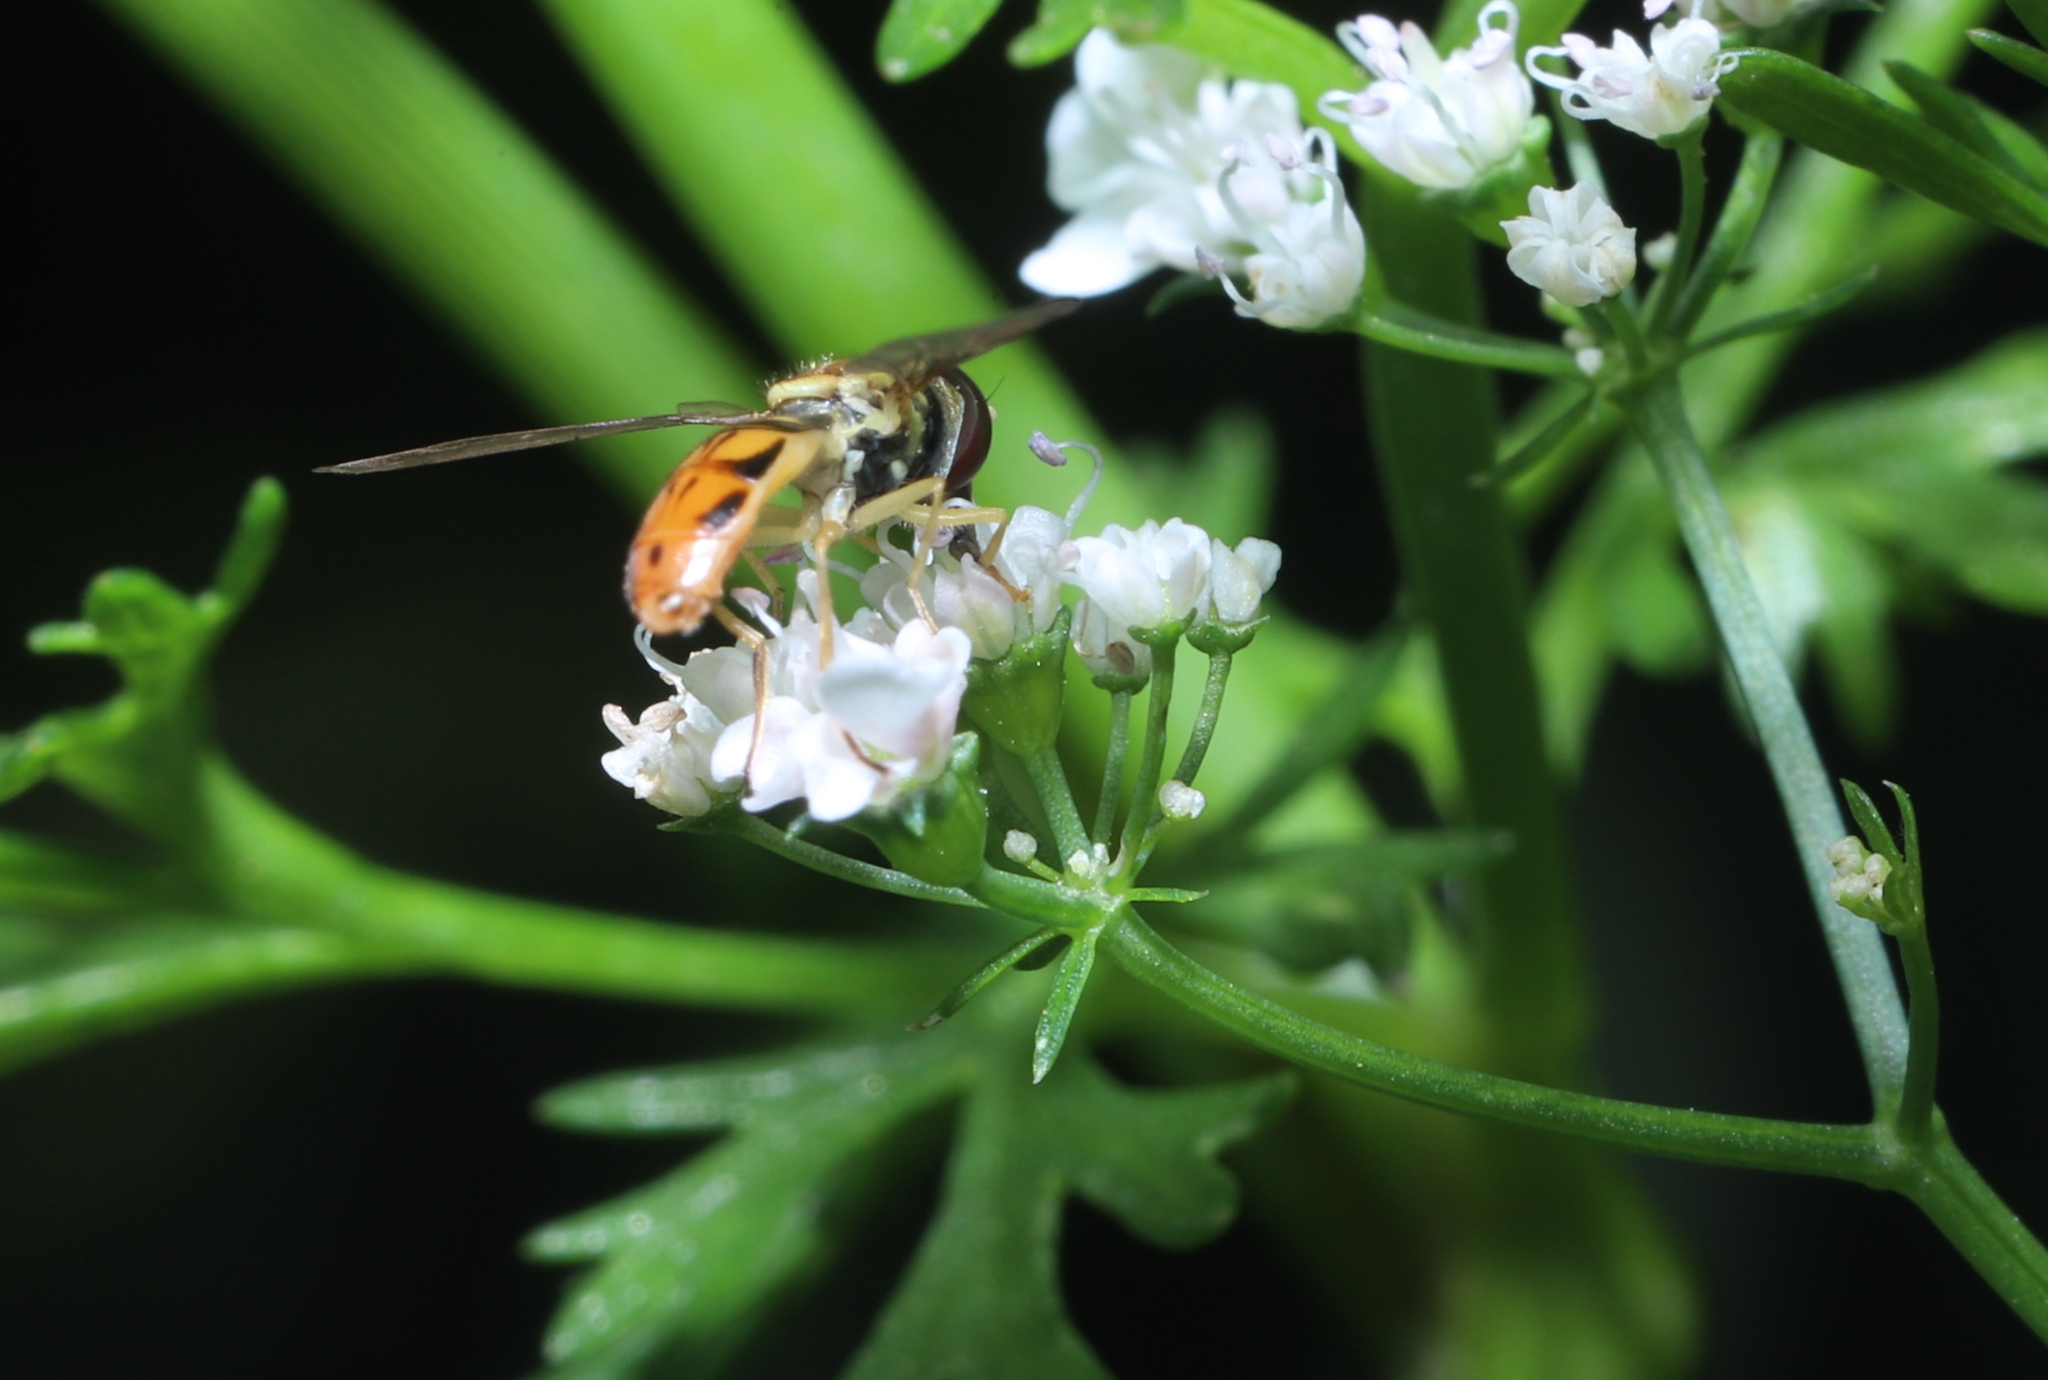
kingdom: Animalia
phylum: Arthropoda
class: Insecta
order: Diptera
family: Syrphidae
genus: Toxomerus
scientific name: Toxomerus marginatus
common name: Syrphid fly
